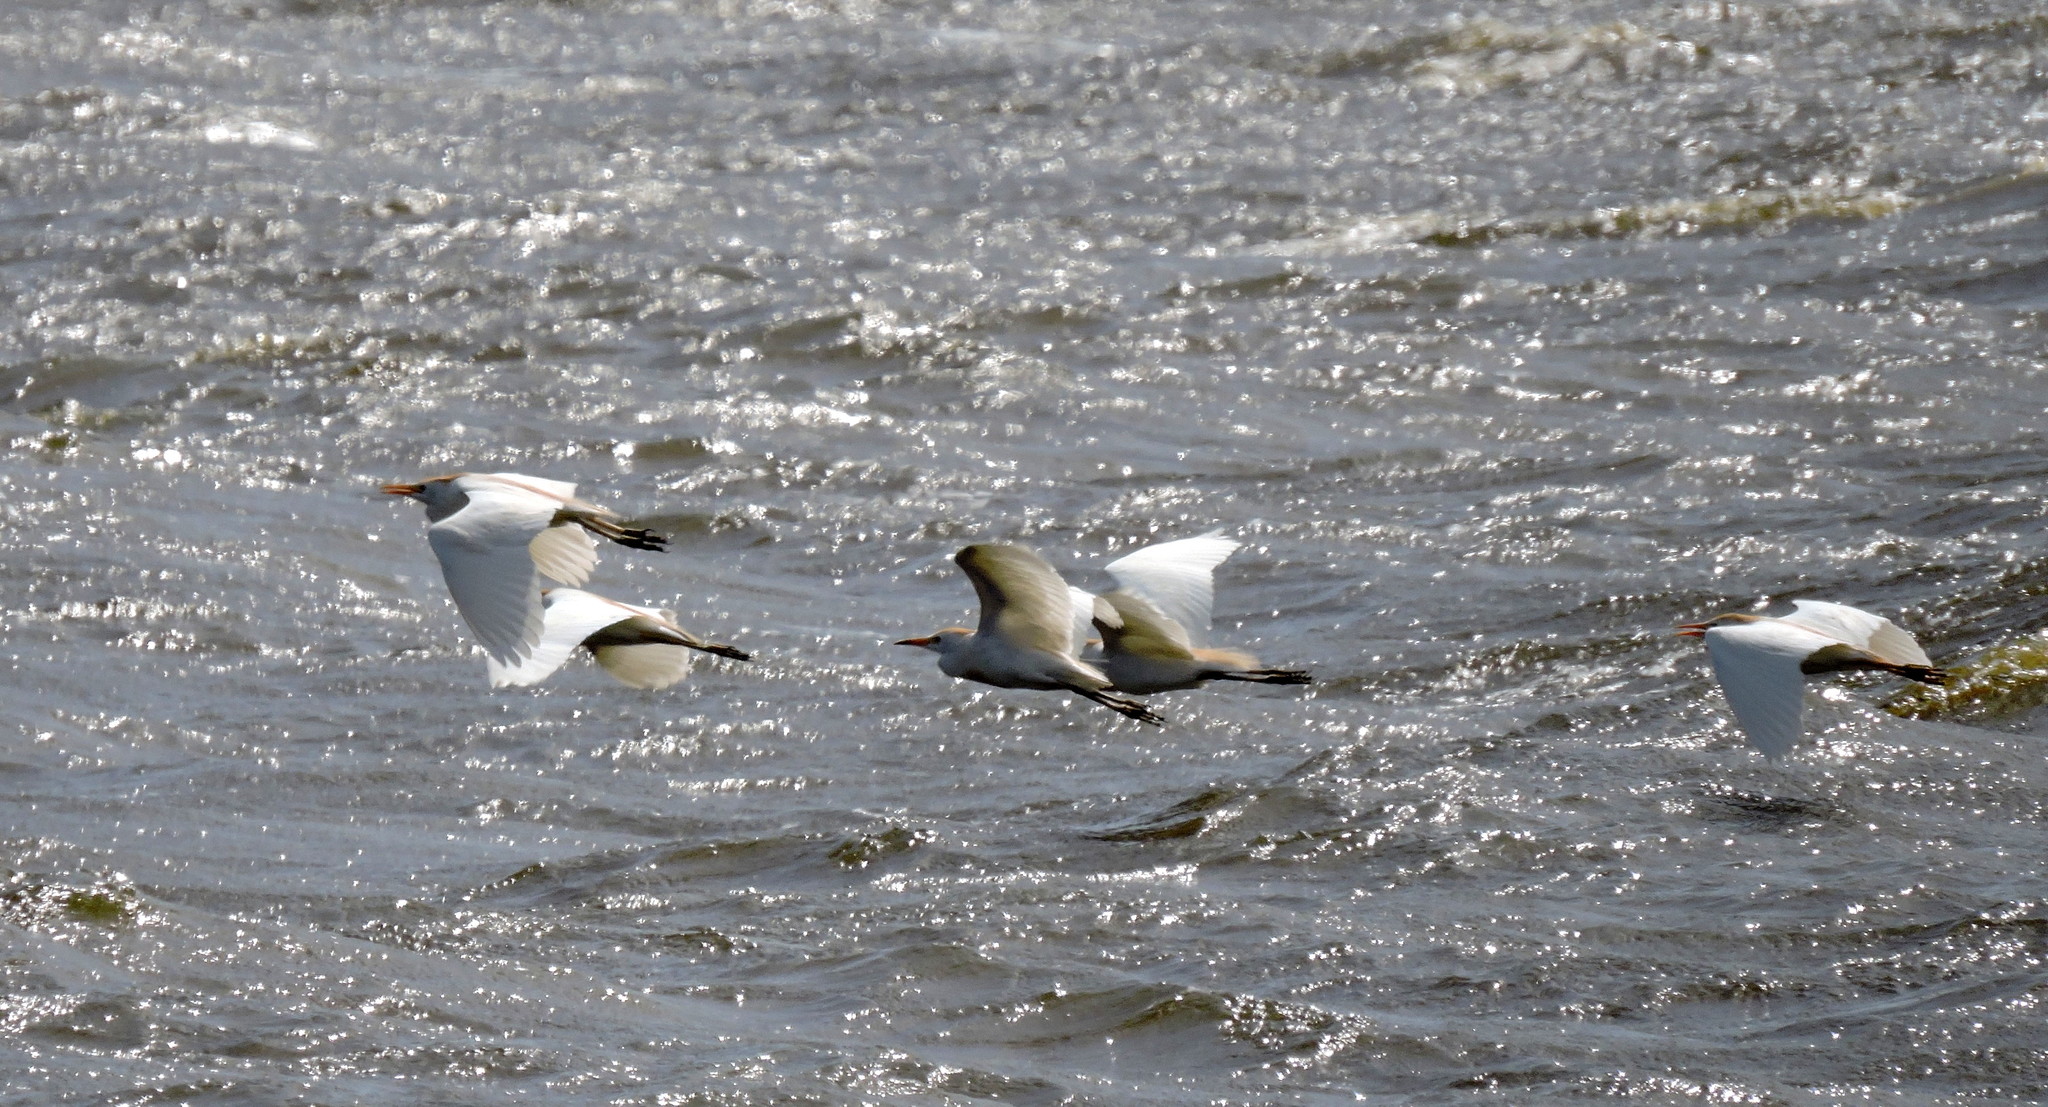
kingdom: Animalia
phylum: Chordata
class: Aves
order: Pelecaniformes
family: Ardeidae
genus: Bubulcus
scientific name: Bubulcus ibis
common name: Cattle egret
